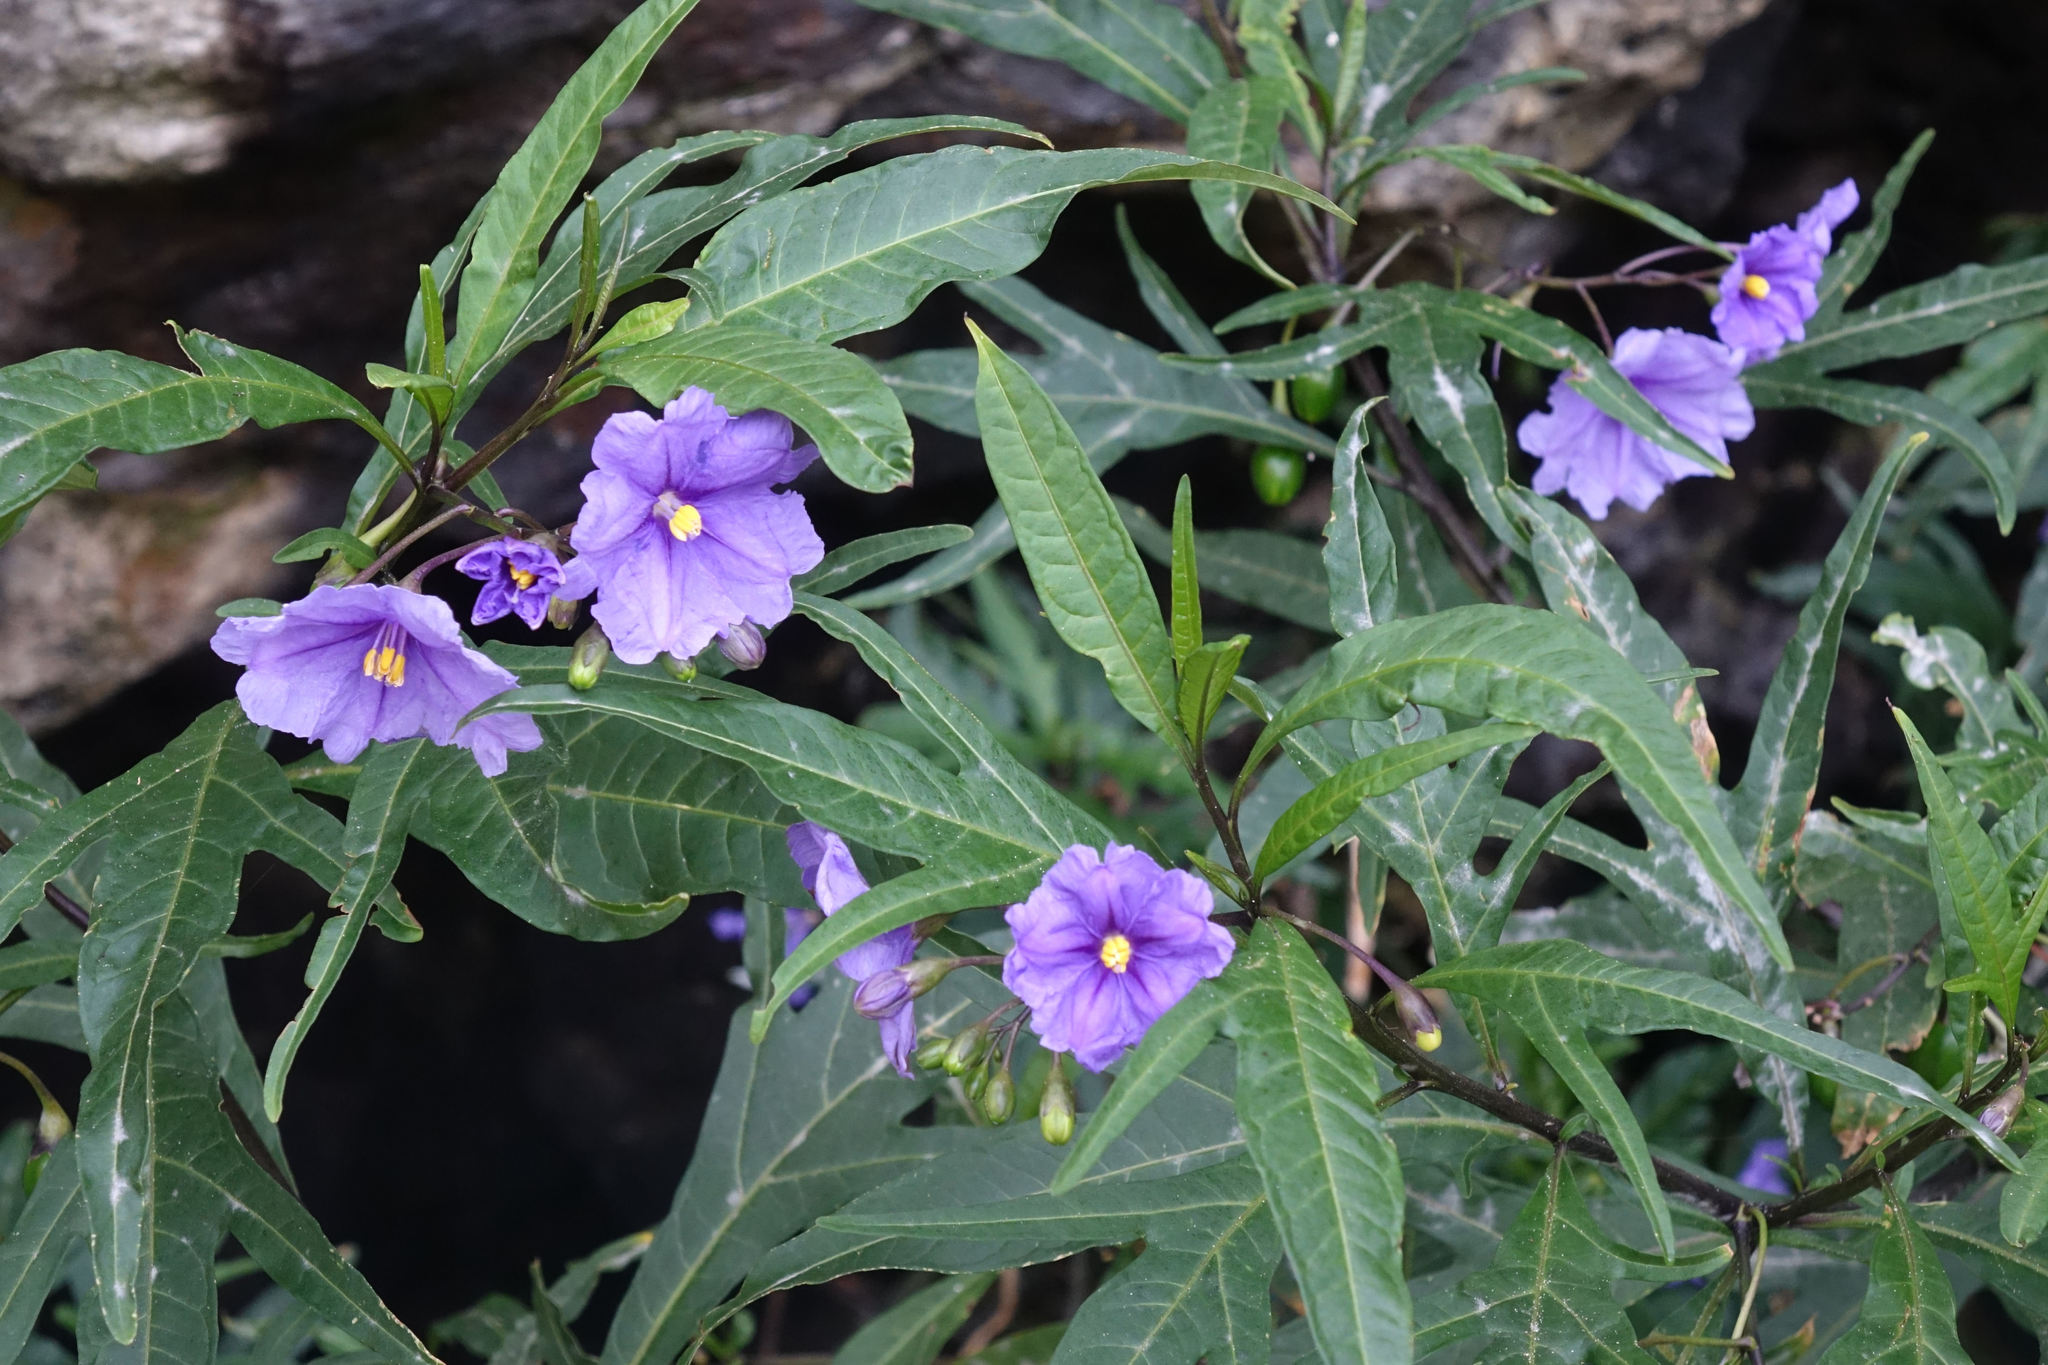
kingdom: Plantae
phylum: Tracheophyta
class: Magnoliopsida
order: Solanales
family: Solanaceae
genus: Solanum
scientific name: Solanum laciniatum
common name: Kangaroo-apple
